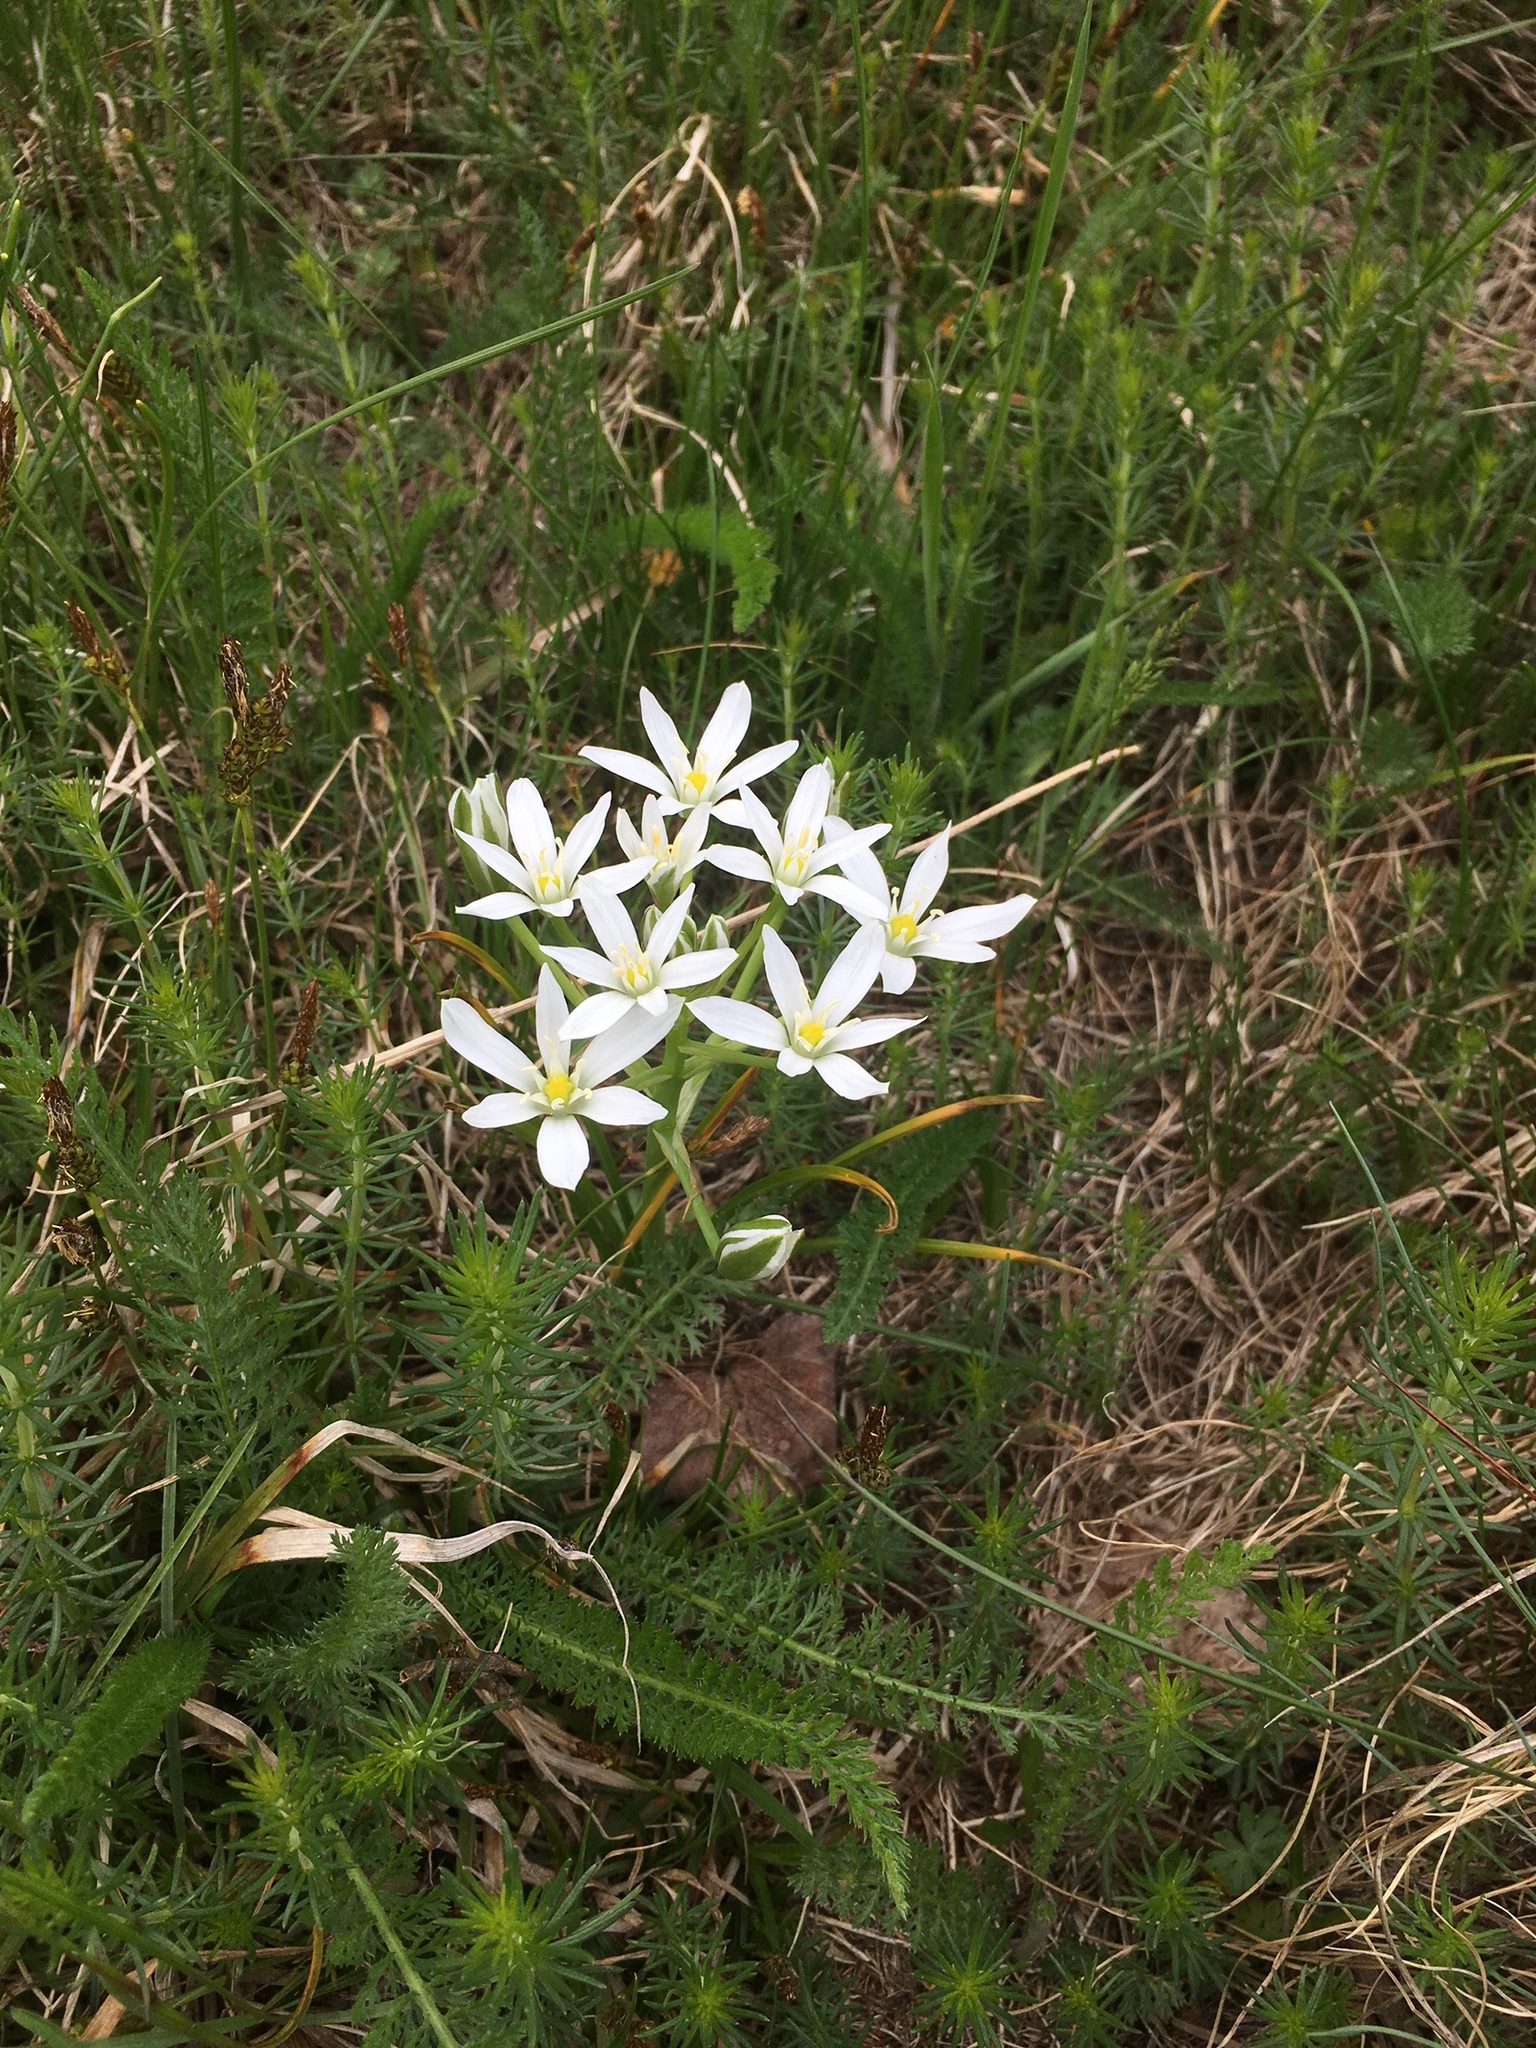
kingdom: Plantae
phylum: Tracheophyta
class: Liliopsida
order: Asparagales
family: Asparagaceae
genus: Ornithogalum
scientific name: Ornithogalum umbellatum
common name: Garden star-of-bethlehem
